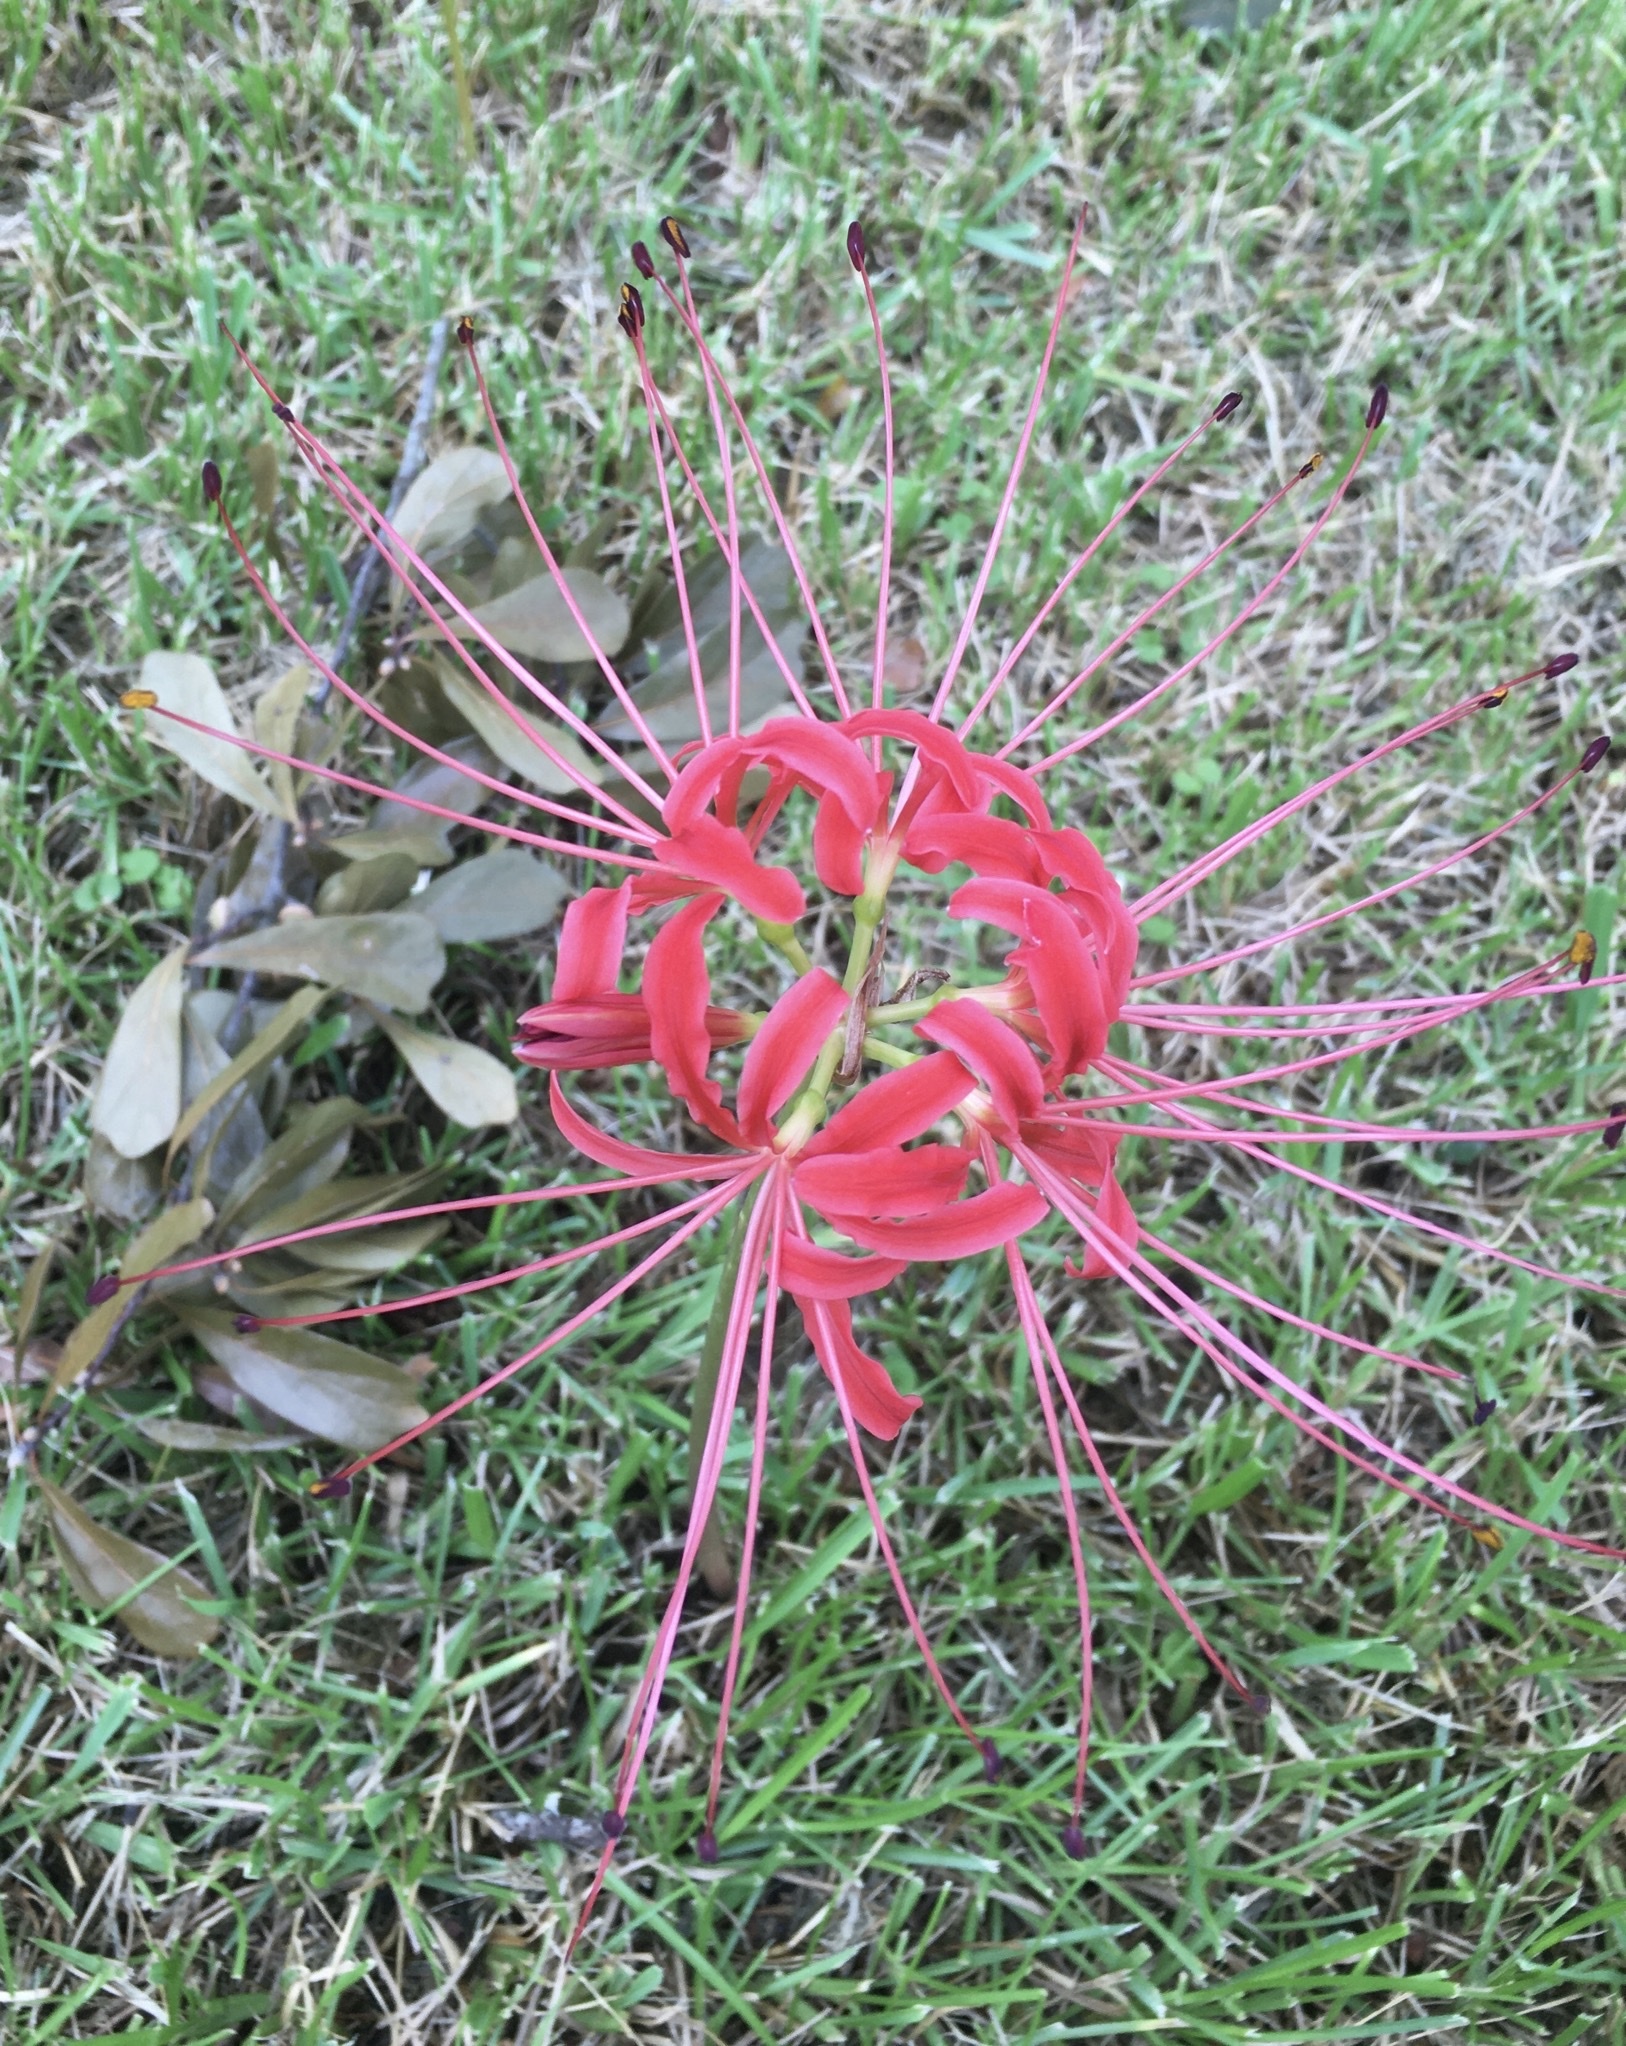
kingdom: Plantae
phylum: Tracheophyta
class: Liliopsida
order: Asparagales
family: Amaryllidaceae
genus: Lycoris
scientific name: Lycoris radiata
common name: Red spider lily
